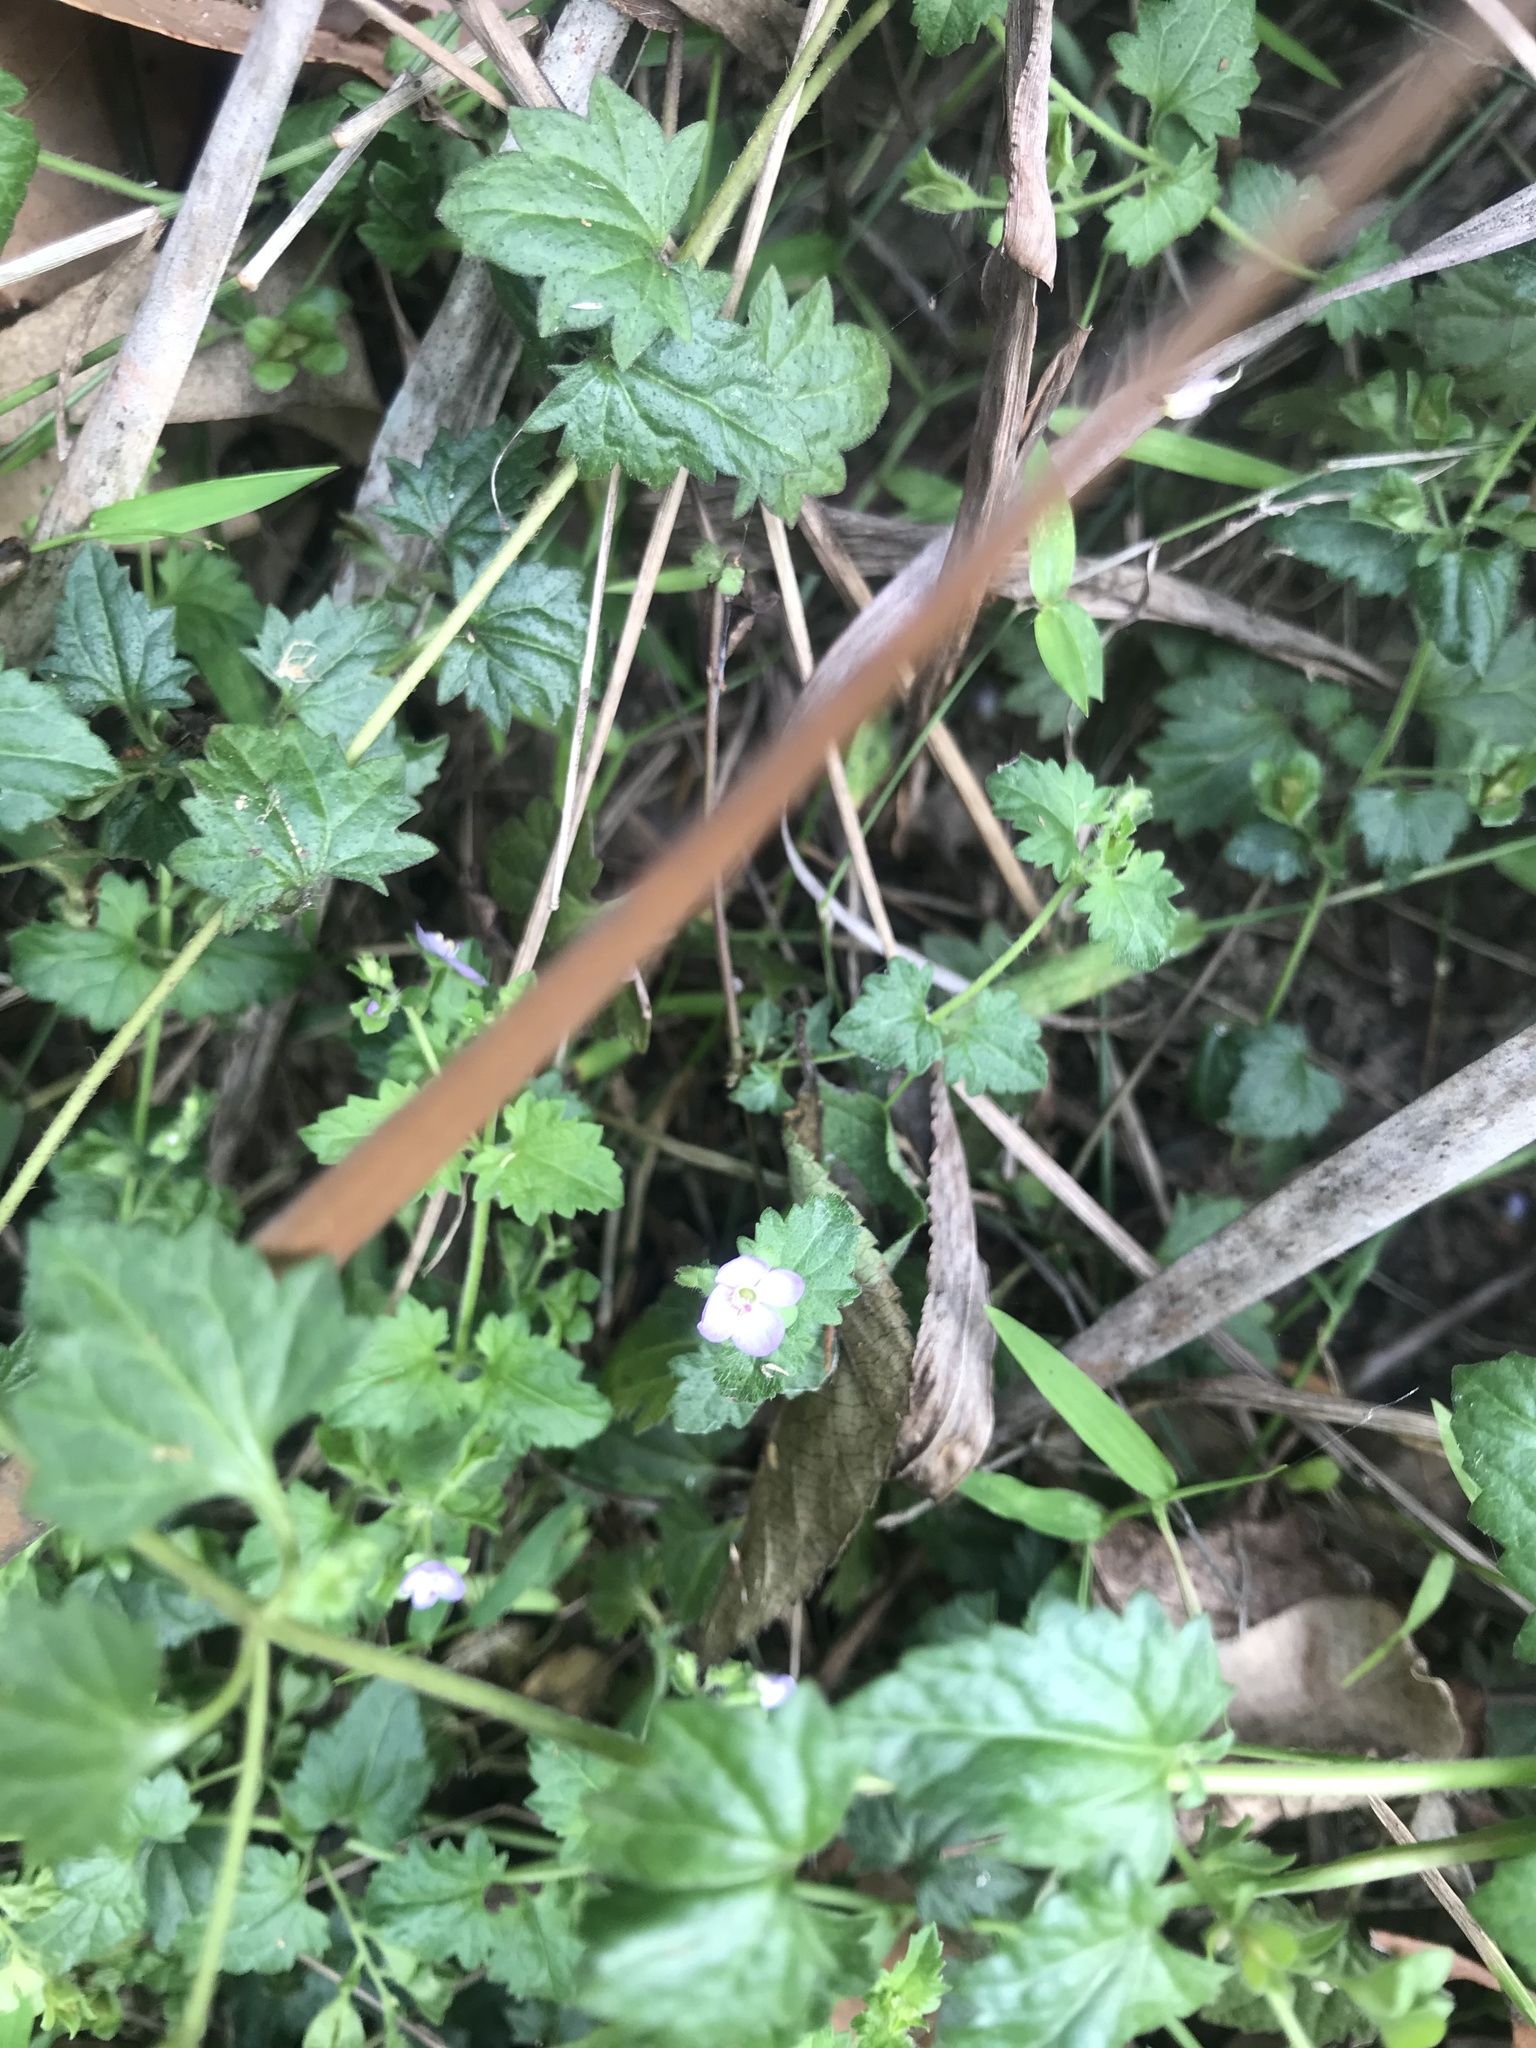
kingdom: Plantae
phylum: Tracheophyta
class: Magnoliopsida
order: Lamiales
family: Plantaginaceae
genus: Veronica
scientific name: Veronica plebeia
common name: Speedwell
